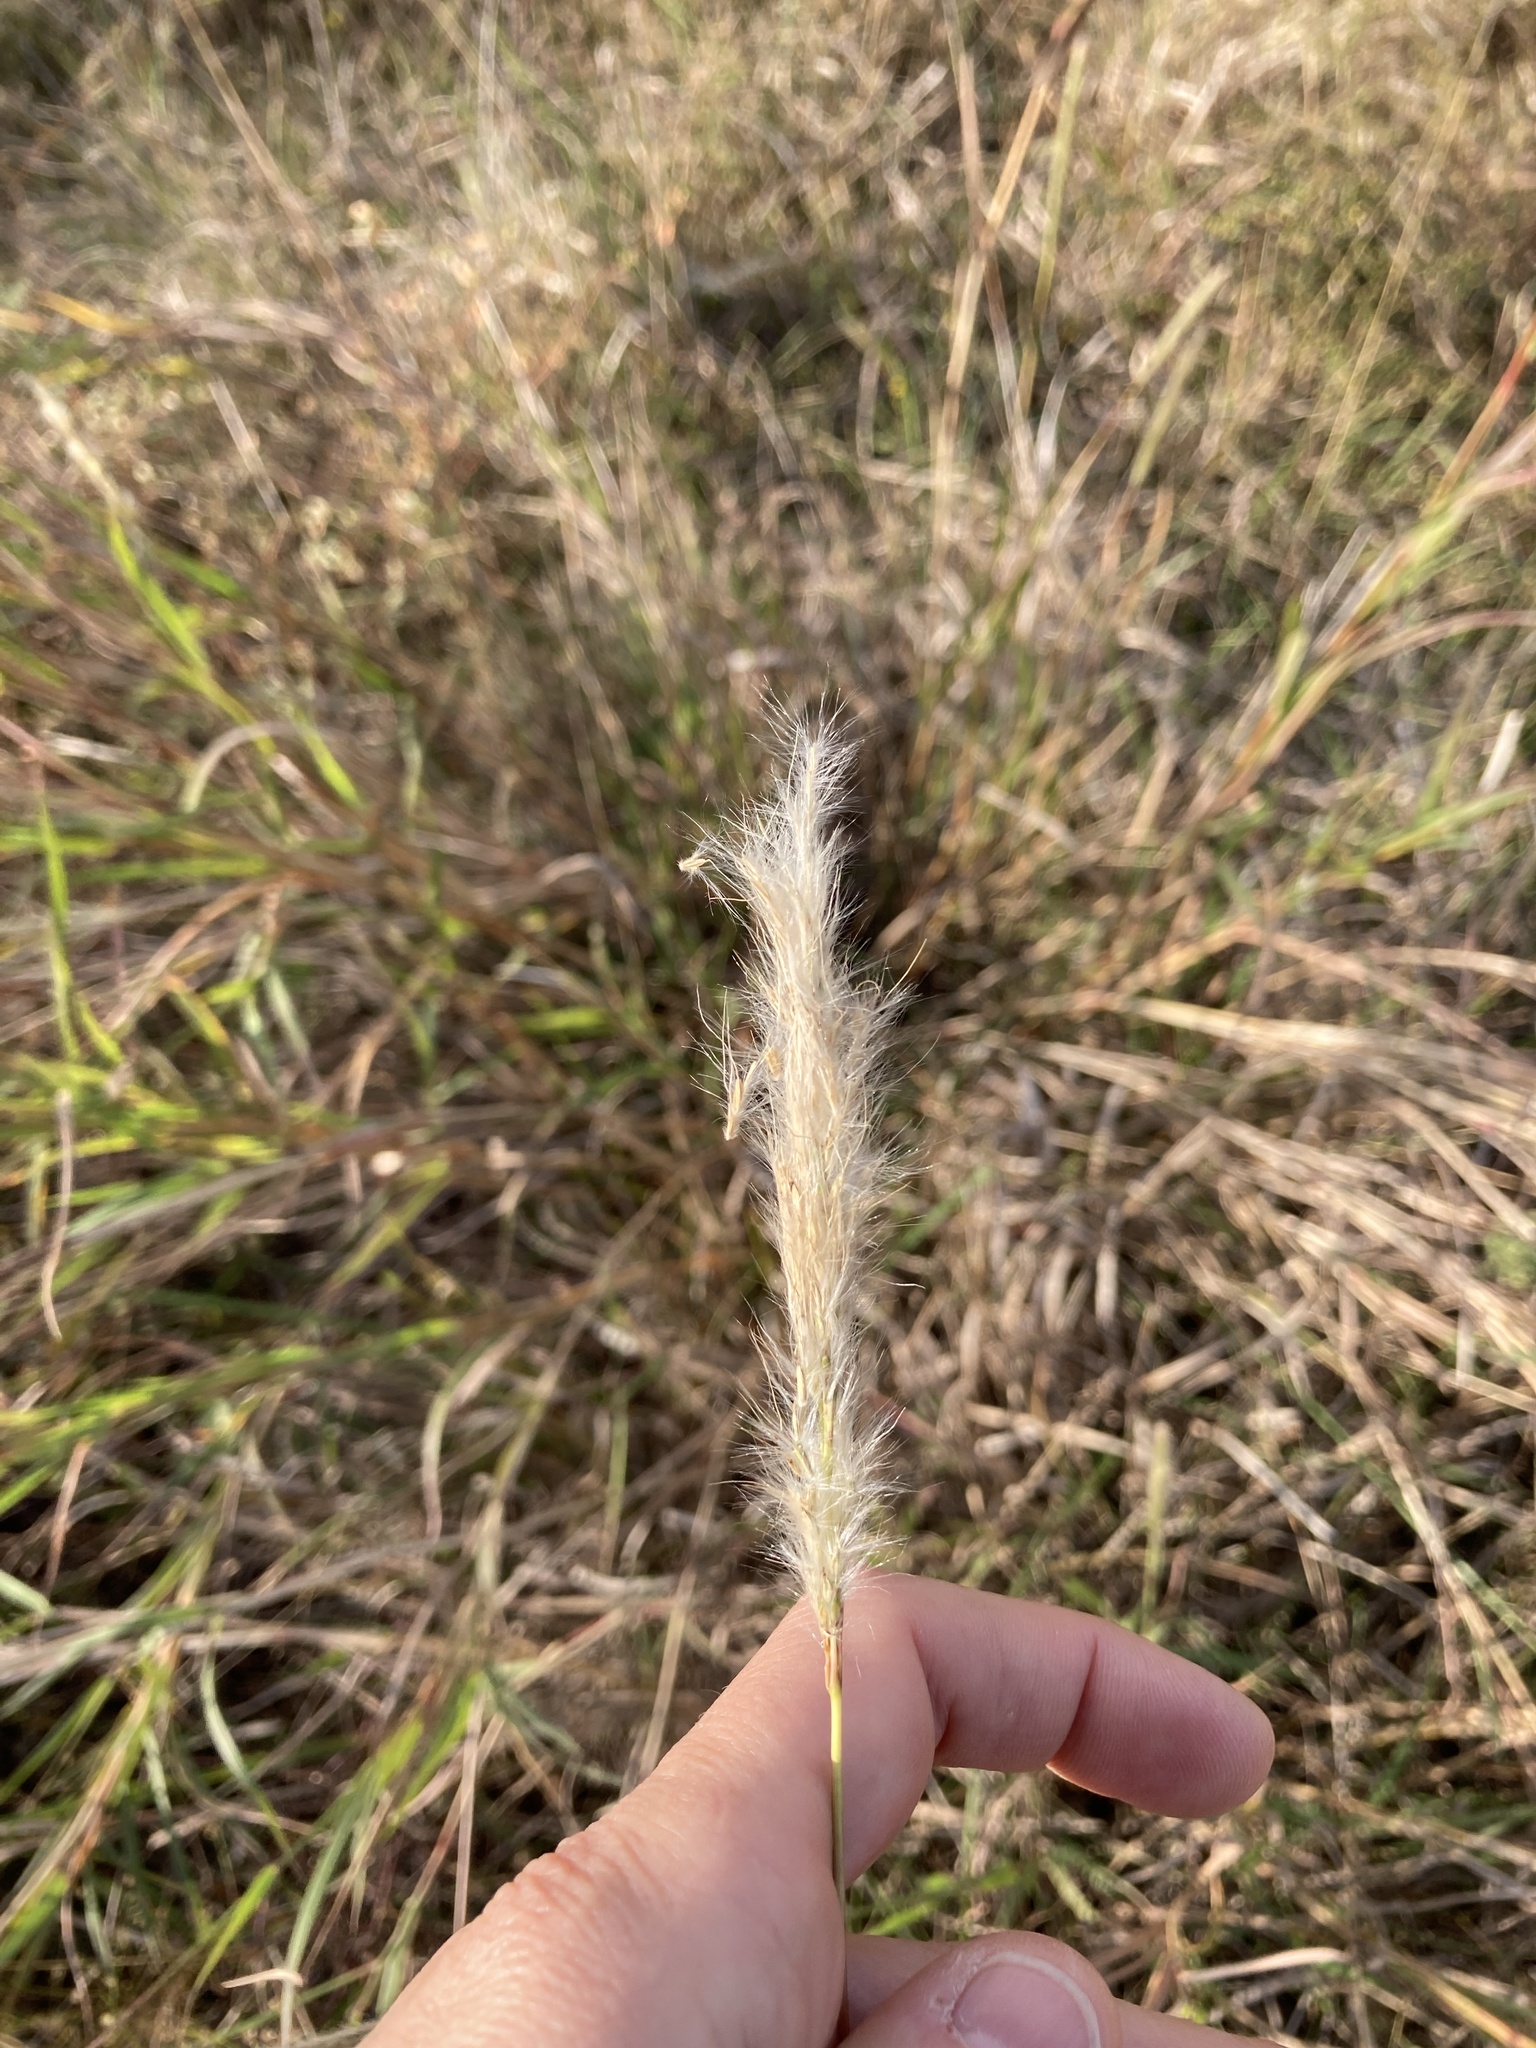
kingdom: Plantae
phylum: Tracheophyta
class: Liliopsida
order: Poales
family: Poaceae
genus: Bothriochloa
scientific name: Bothriochloa torreyana
